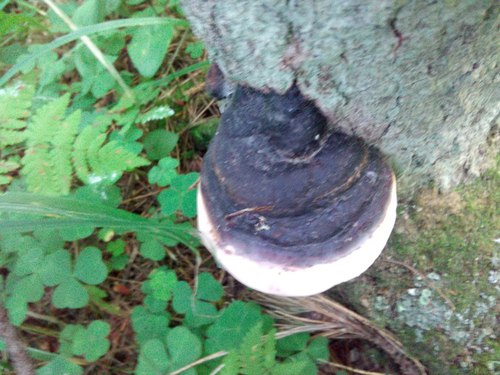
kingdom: Fungi
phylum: Basidiomycota
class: Agaricomycetes
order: Polyporales
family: Fomitopsidaceae
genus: Fomitopsis
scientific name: Fomitopsis pinicola
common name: Red-belted bracket
